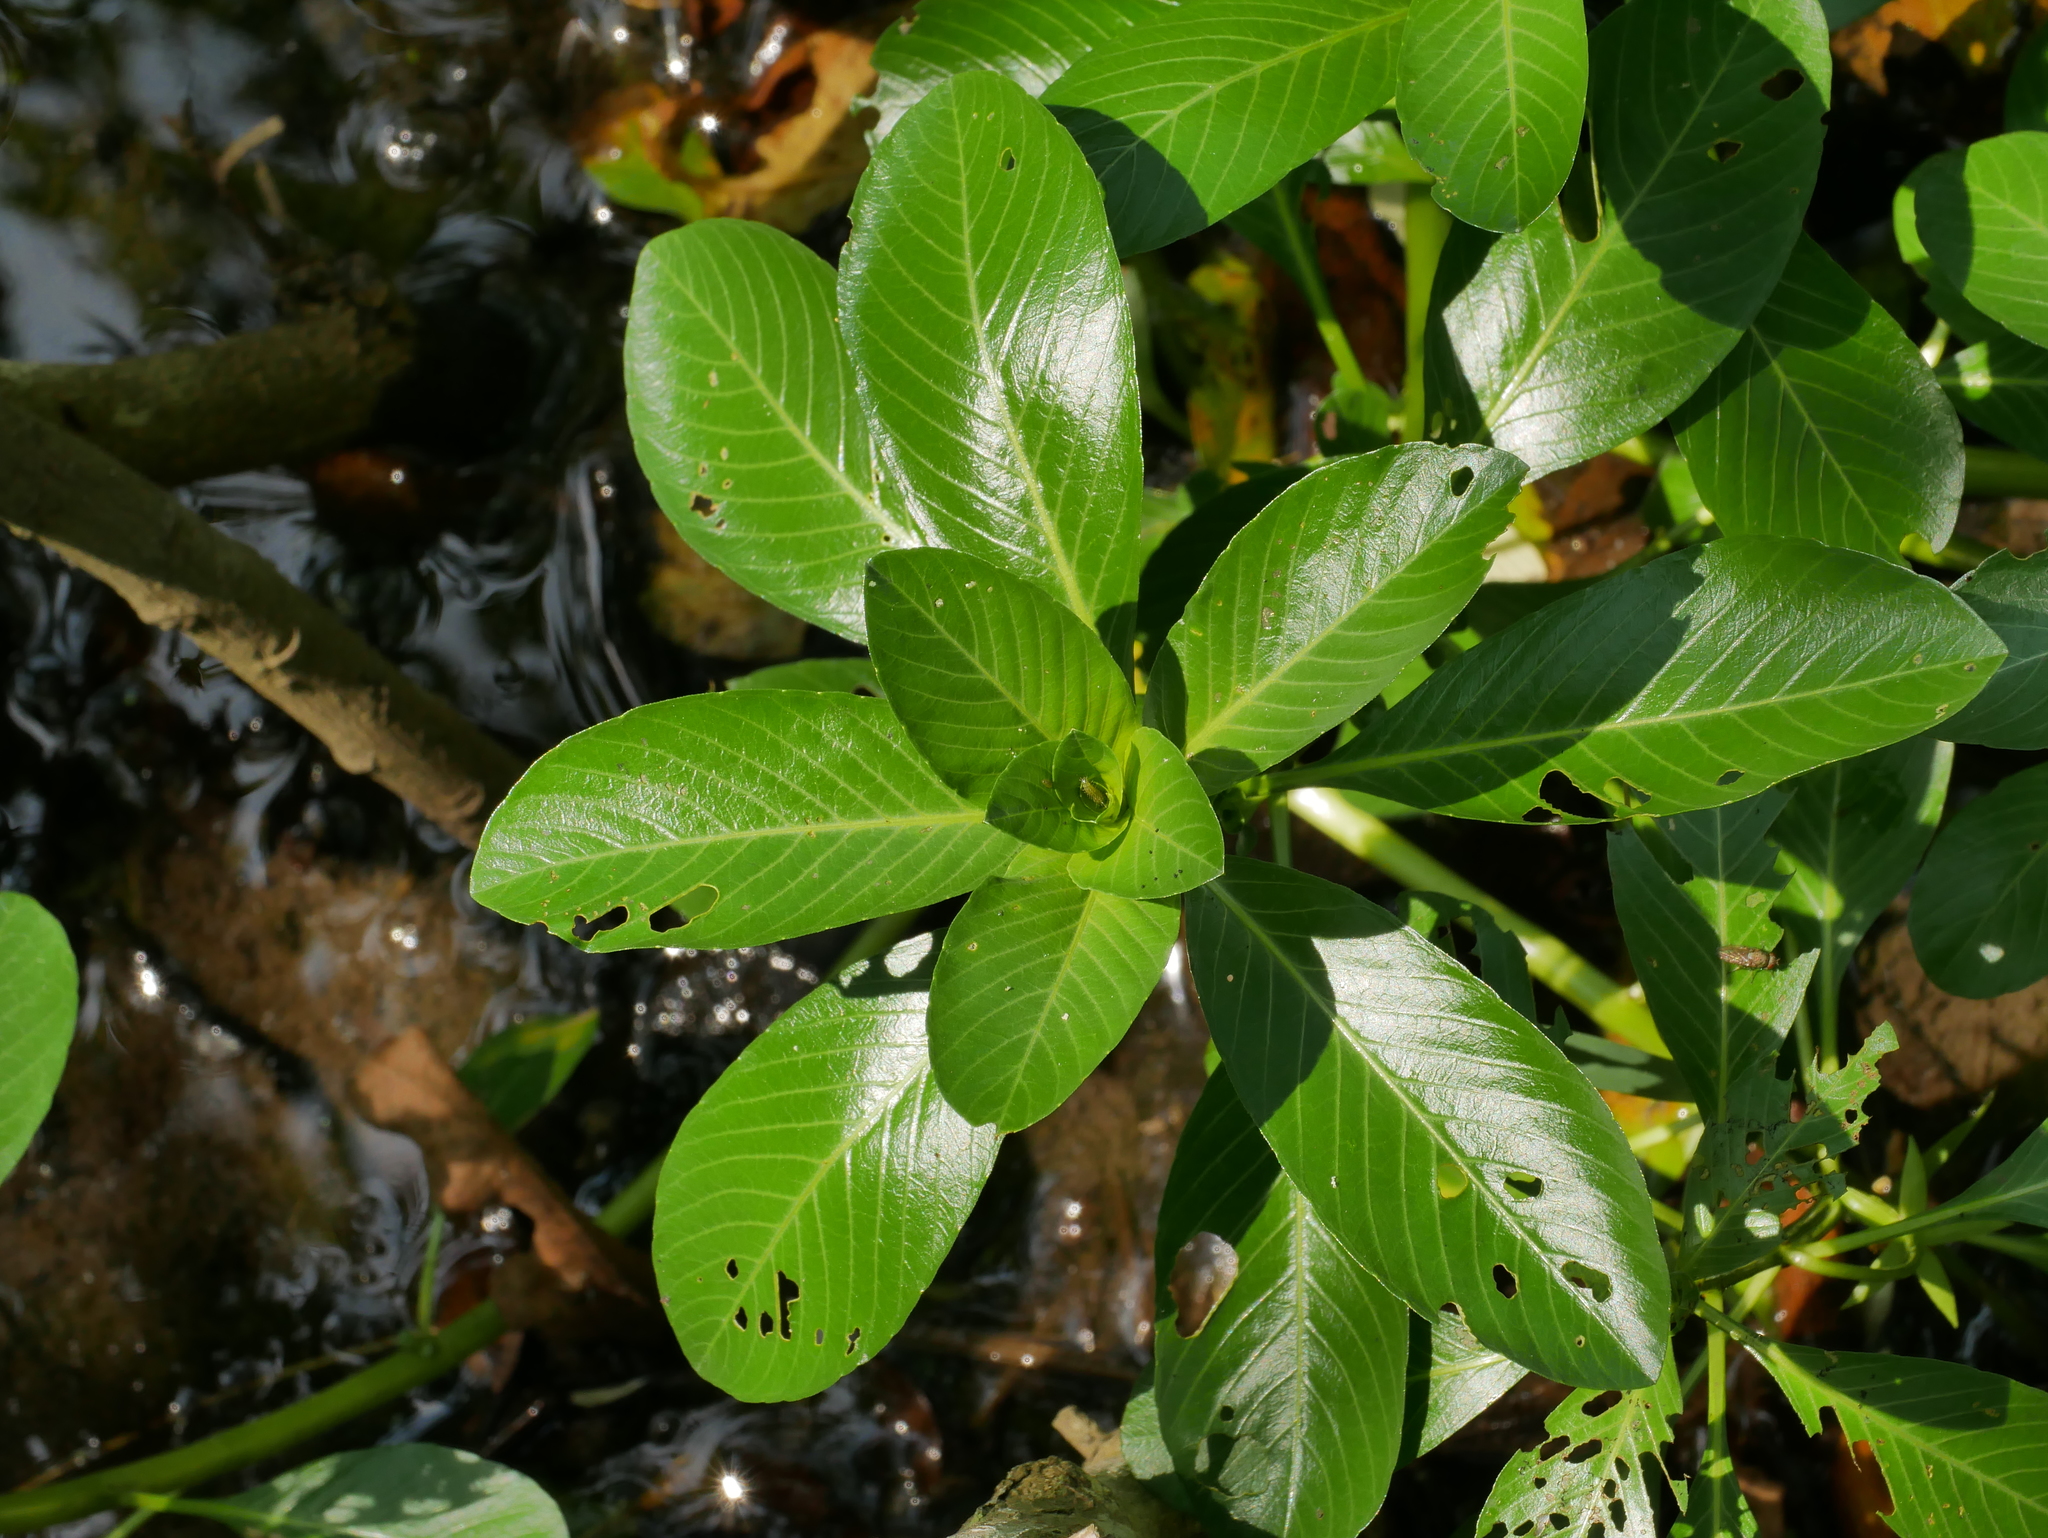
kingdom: Plantae
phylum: Tracheophyta
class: Magnoliopsida
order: Myrtales
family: Onagraceae
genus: Ludwigia
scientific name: Ludwigia taiwanensis
